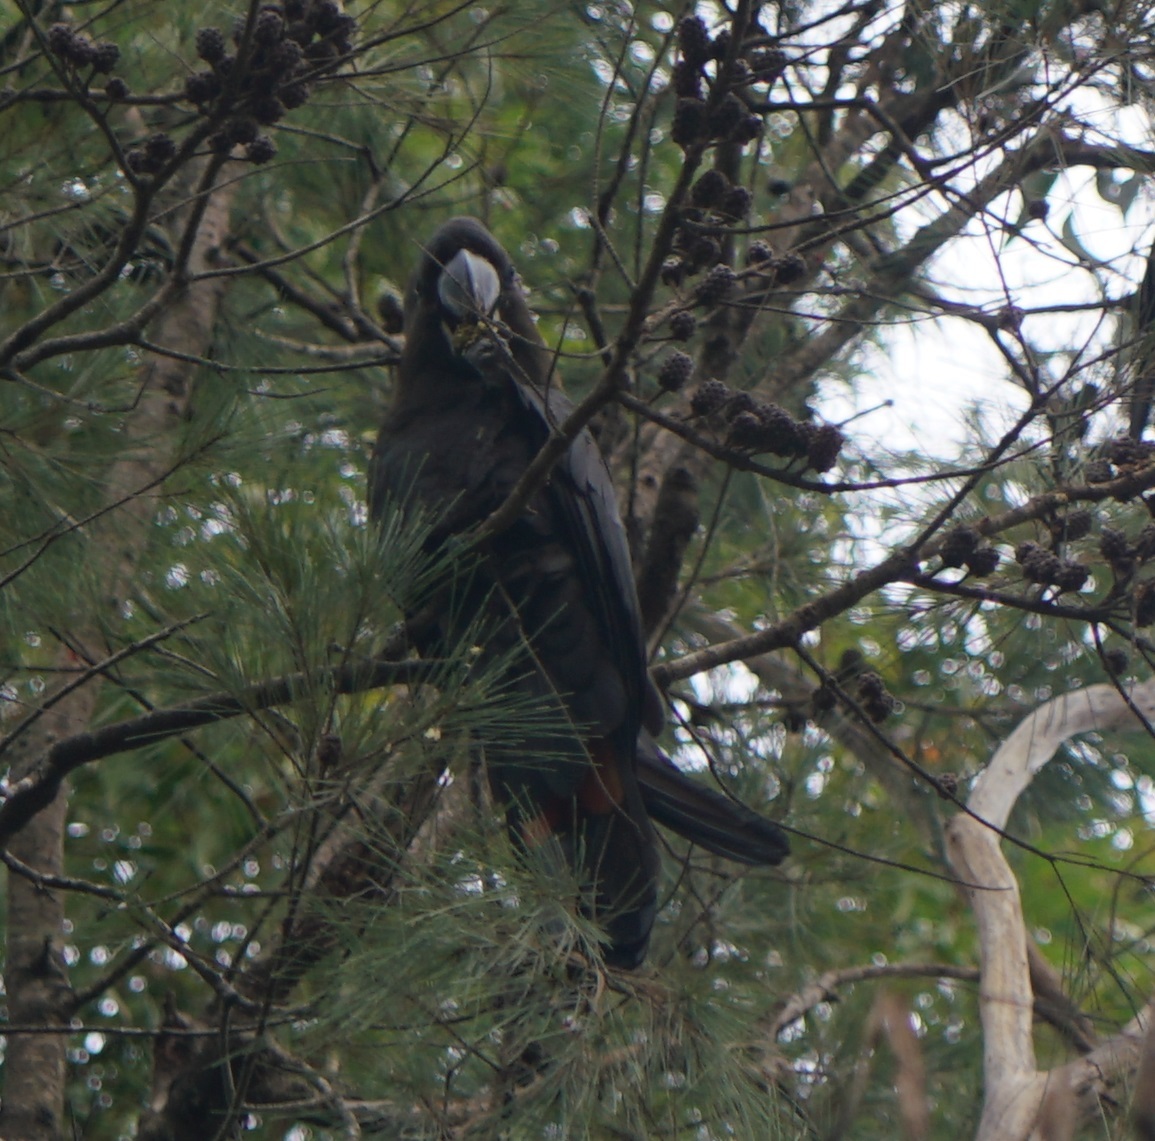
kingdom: Animalia
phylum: Chordata
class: Aves
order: Psittaciformes
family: Psittacidae
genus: Calyptorhynchus
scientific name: Calyptorhynchus lathami
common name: Glossy black cockatoo
